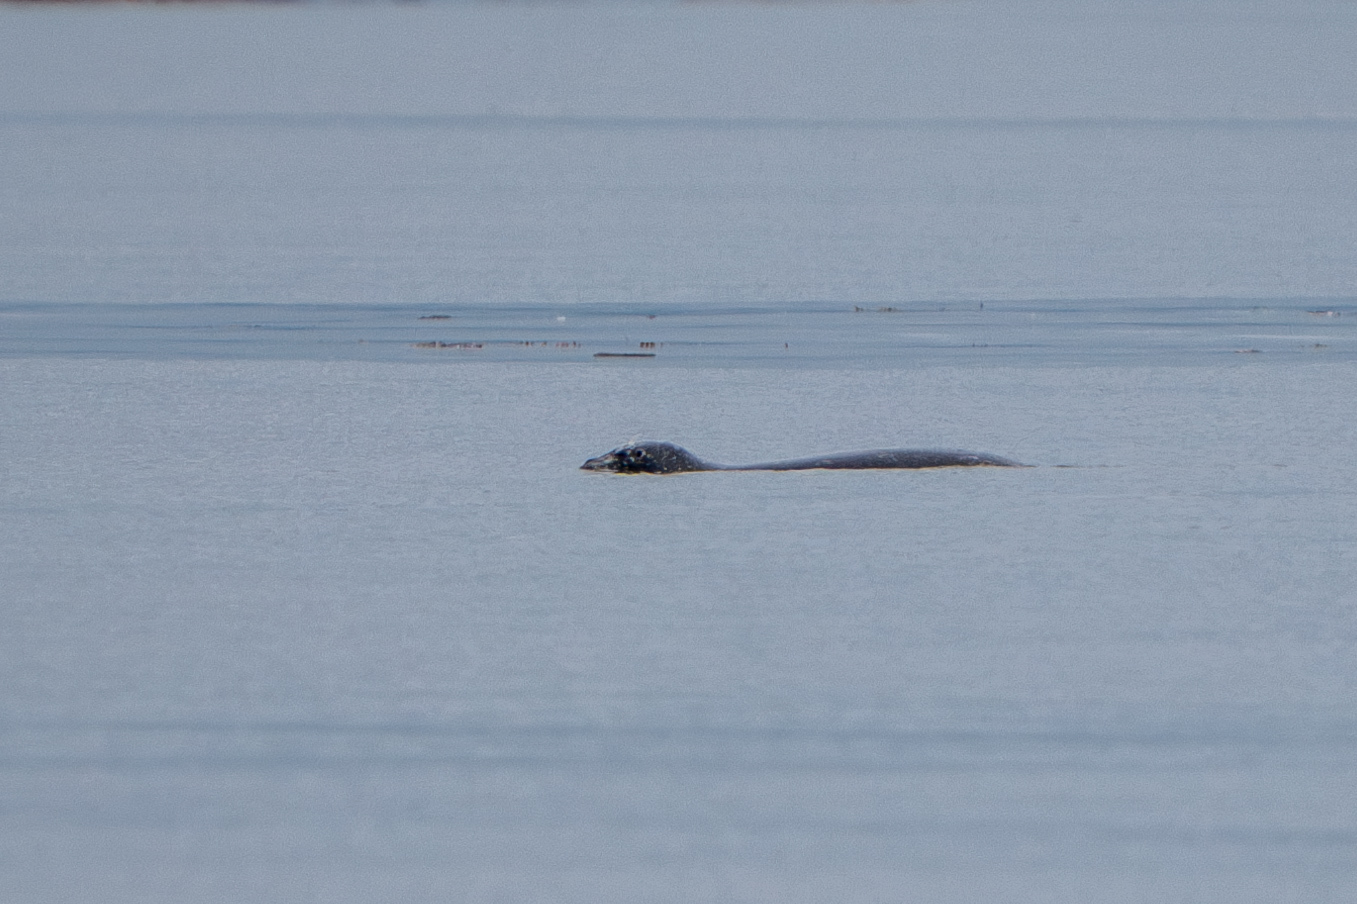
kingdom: Animalia
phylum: Chordata
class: Mammalia
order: Carnivora
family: Phocidae
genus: Phoca
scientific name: Phoca vitulina
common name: Harbor seal
